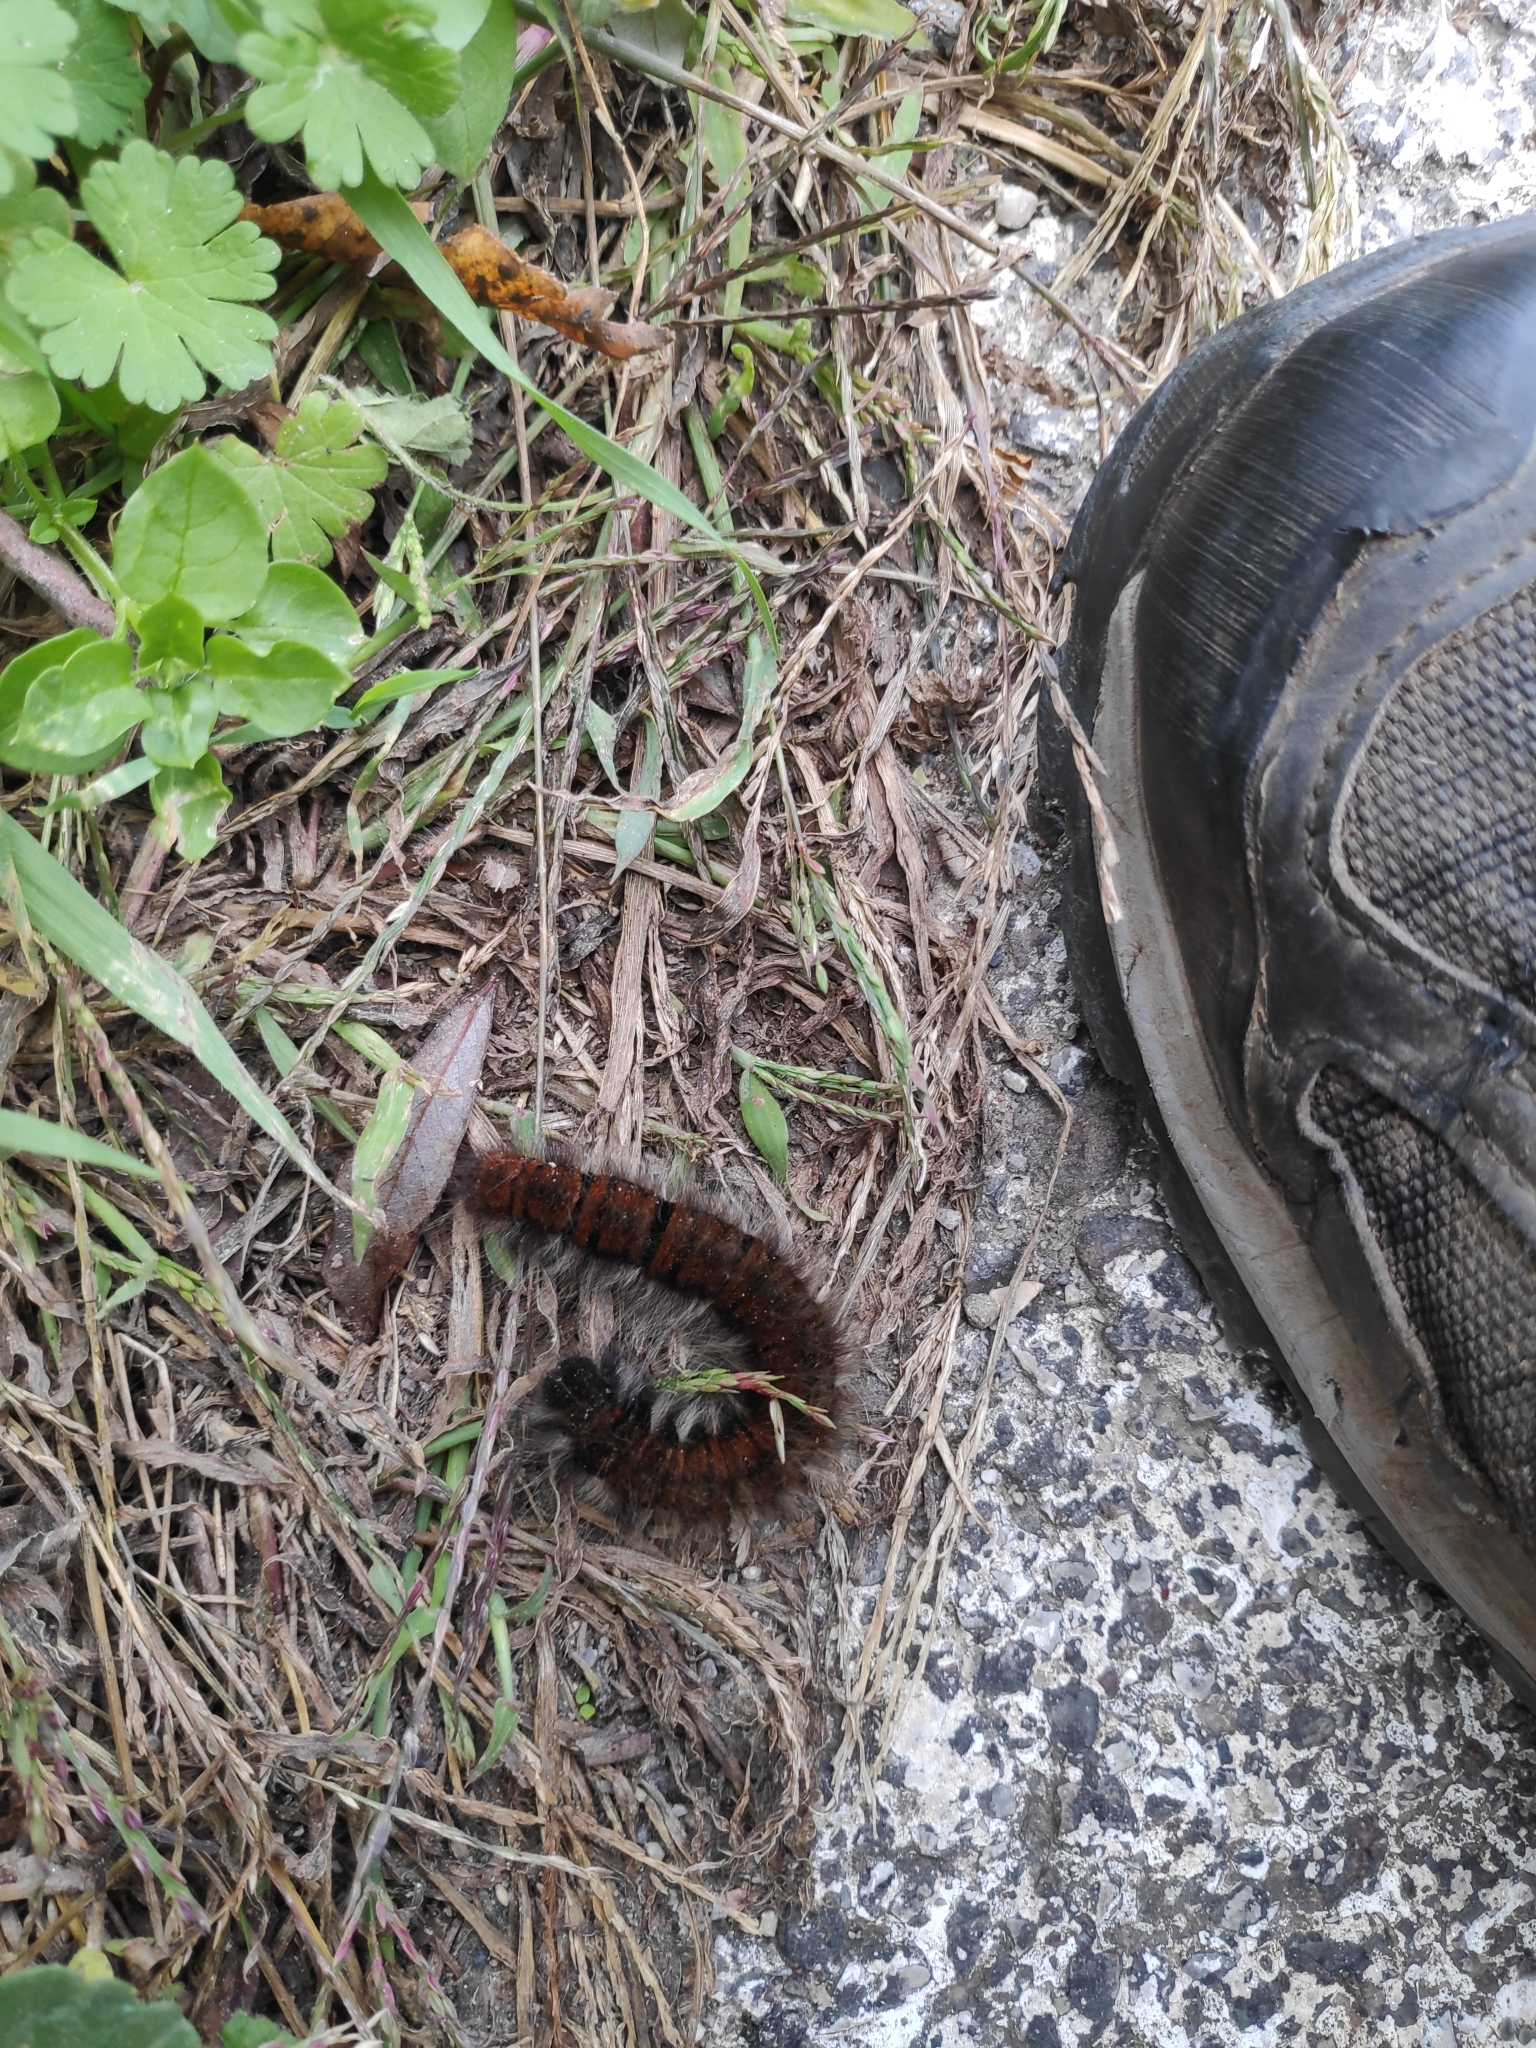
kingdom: Animalia
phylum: Arthropoda
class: Insecta
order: Lepidoptera
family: Lasiocampidae
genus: Macrothylacia
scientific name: Macrothylacia rubi
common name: Fox moth
